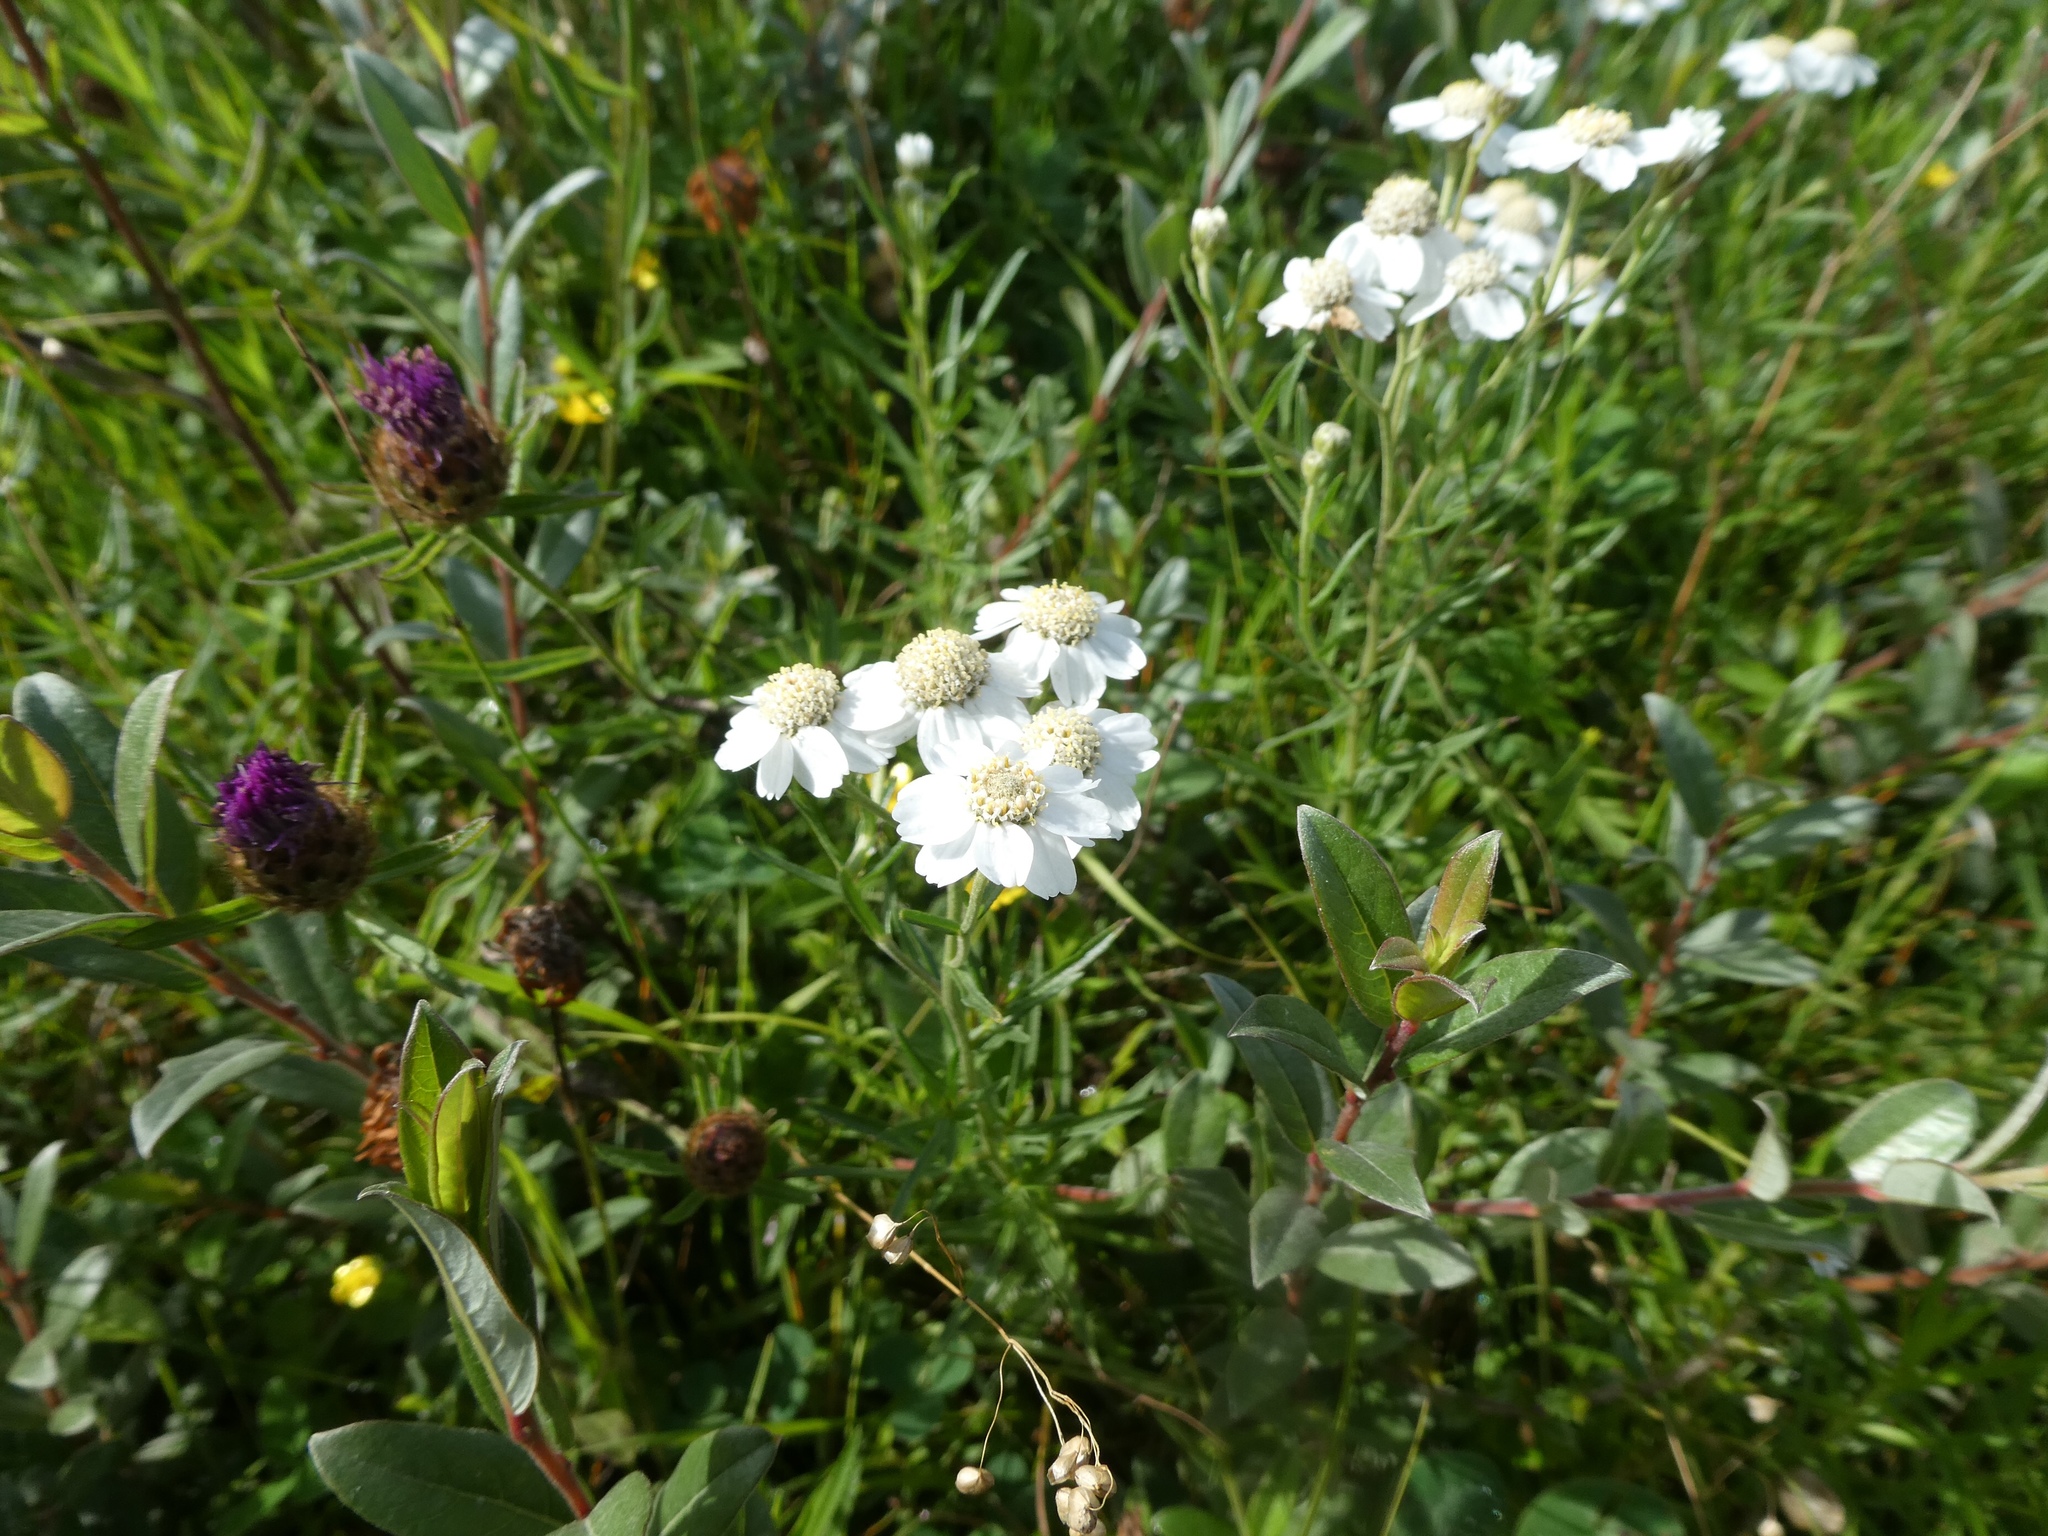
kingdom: Plantae
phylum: Tracheophyta
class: Magnoliopsida
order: Asterales
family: Asteraceae
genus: Achillea
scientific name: Achillea ptarmica
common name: Sneezeweed
